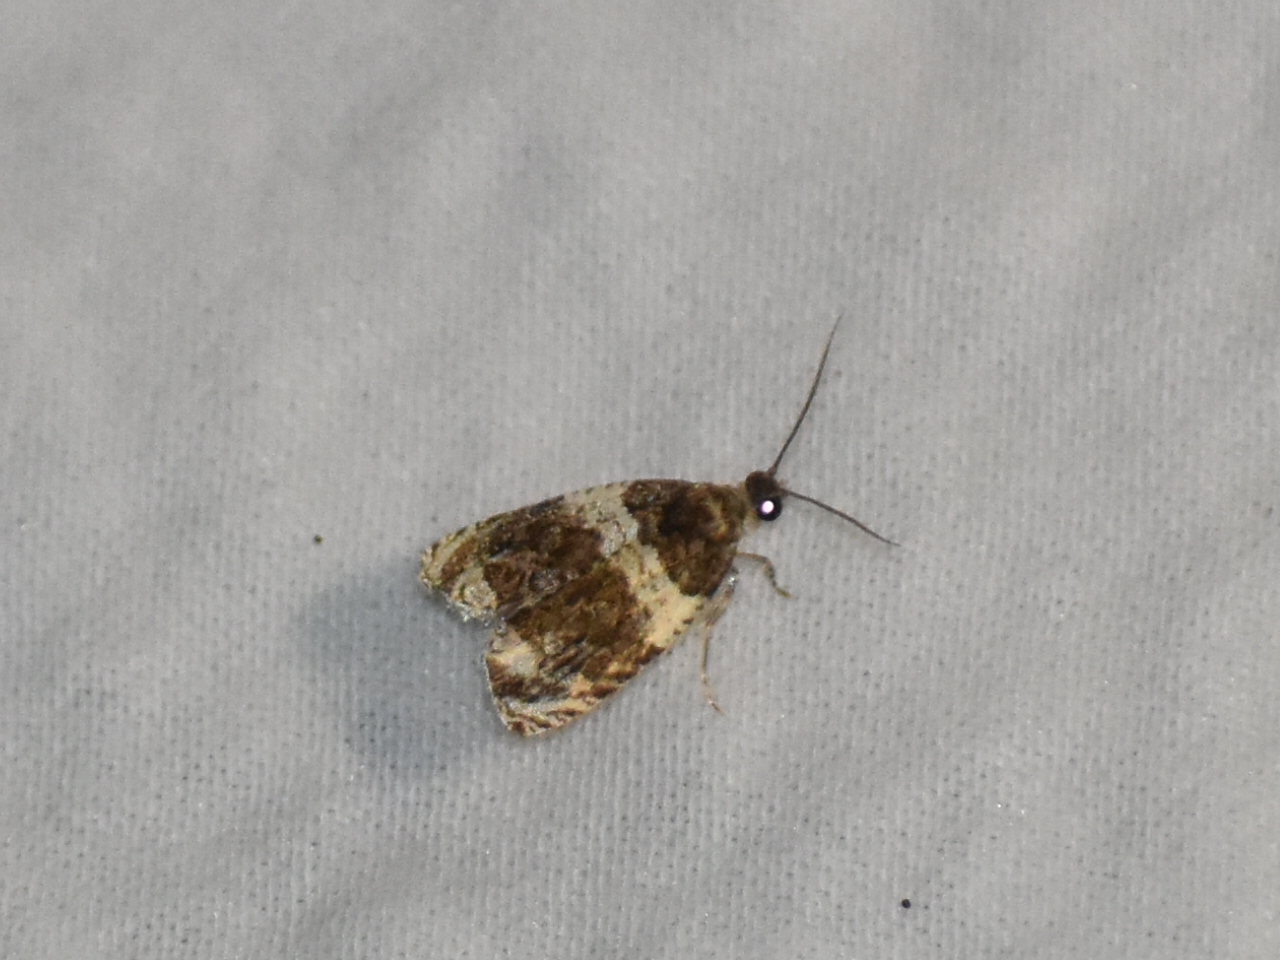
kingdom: Animalia
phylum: Arthropoda
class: Insecta
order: Lepidoptera
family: Tortricidae
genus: Olethreutes
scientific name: Olethreutes fasciatana
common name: Banded olethreutes moth
